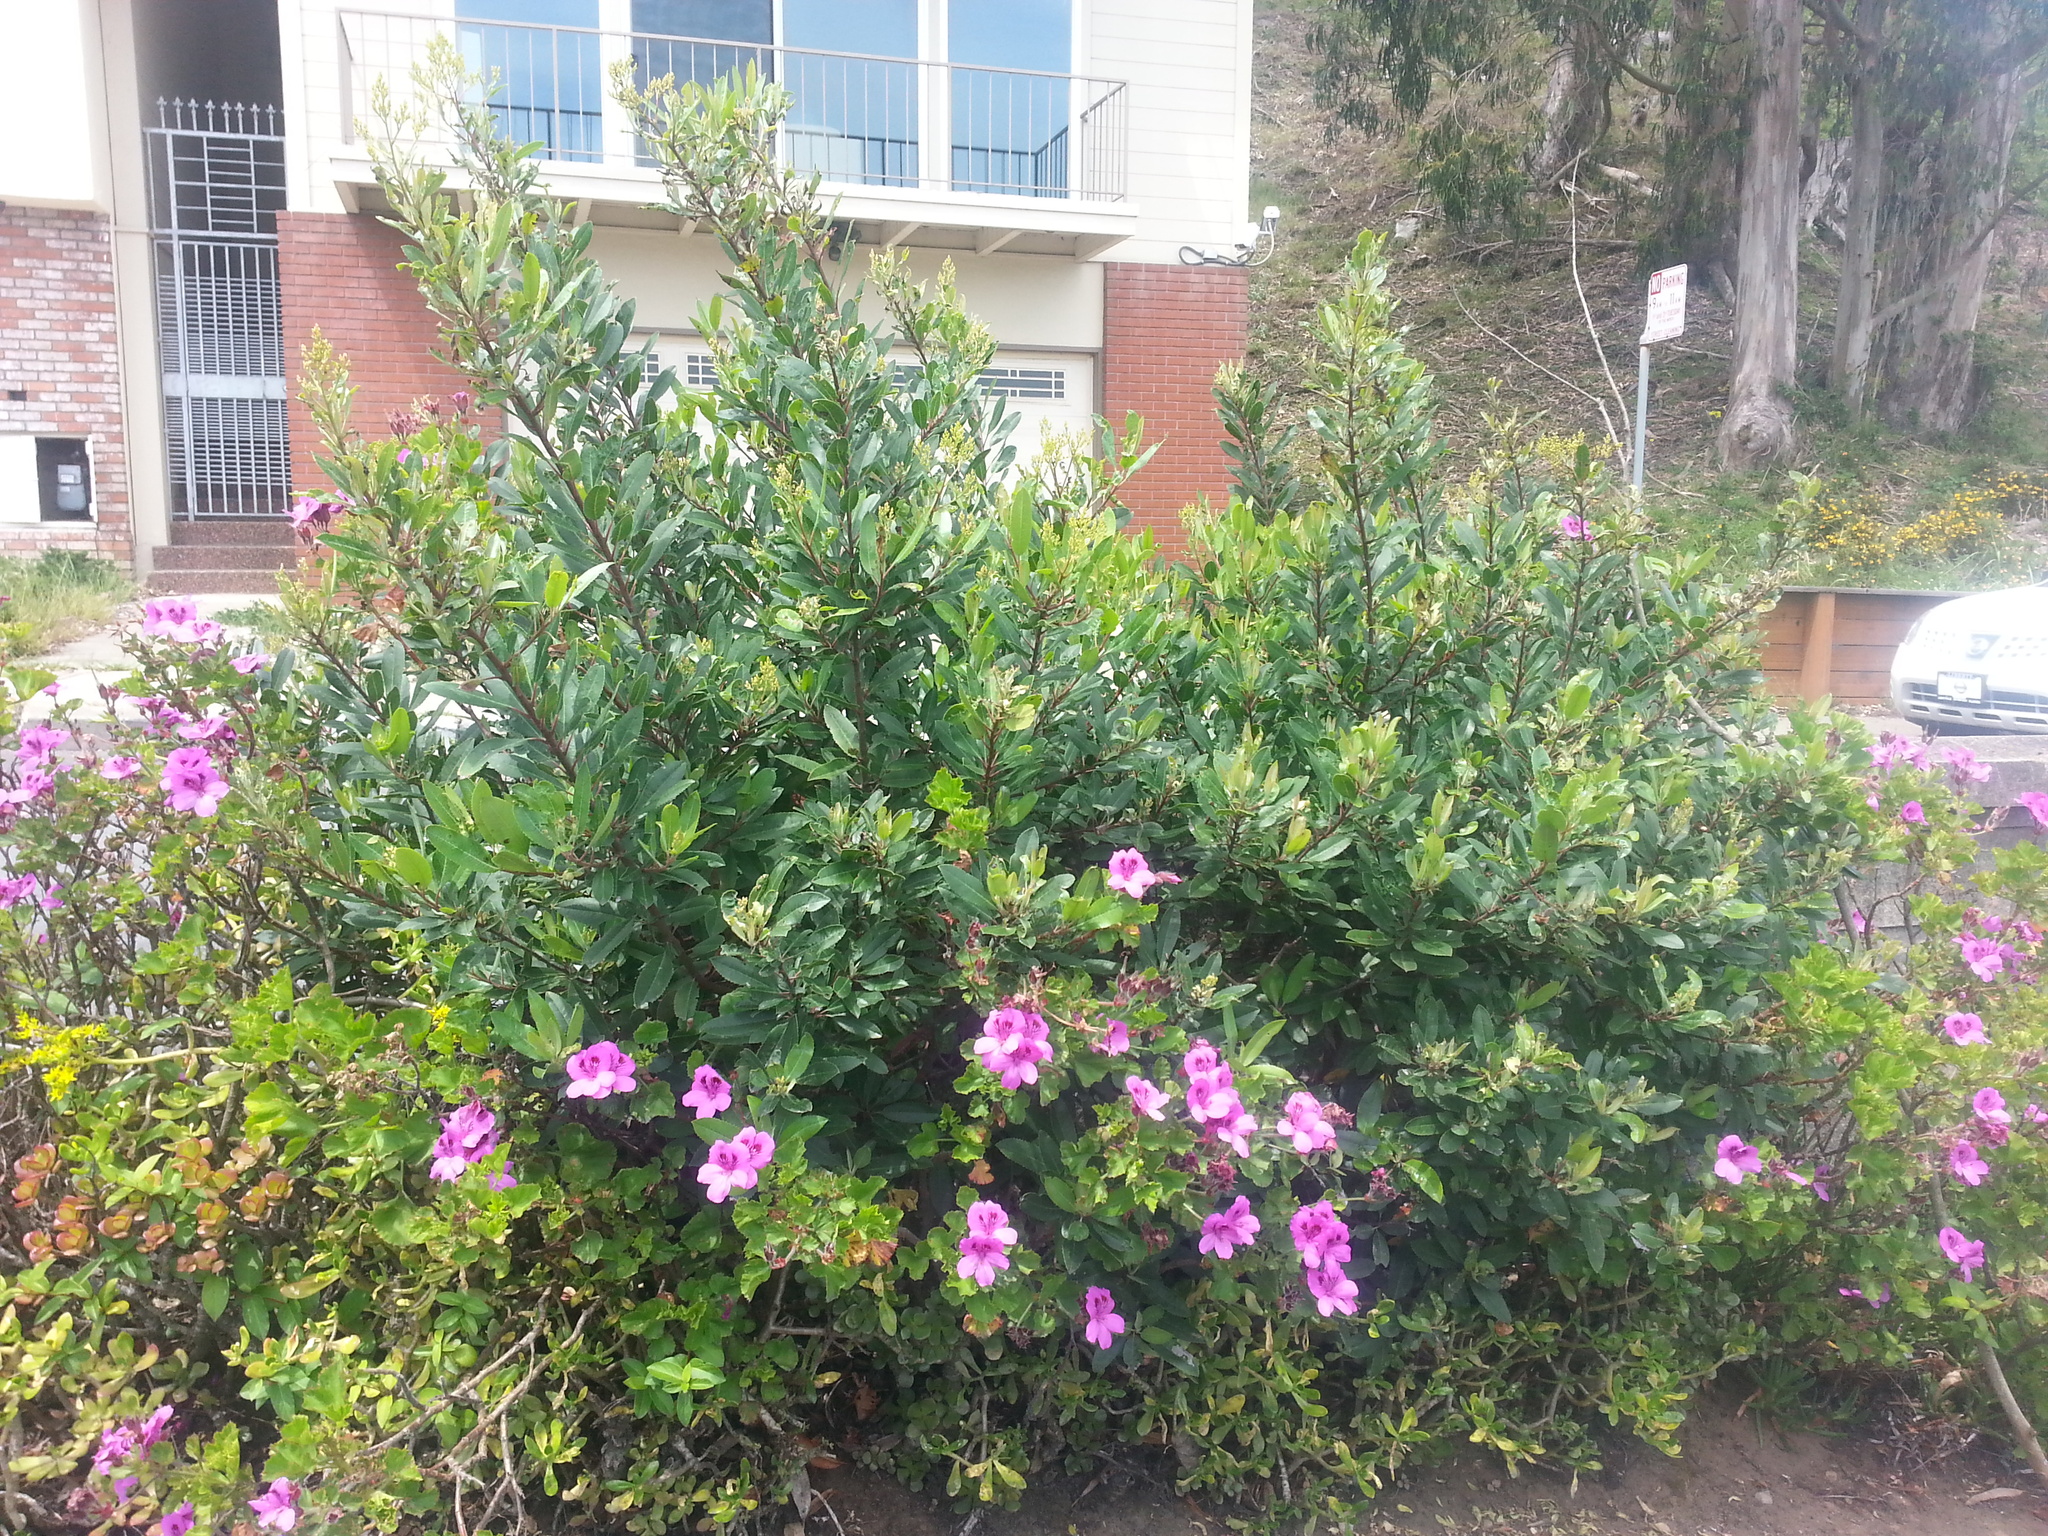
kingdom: Plantae
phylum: Tracheophyta
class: Magnoliopsida
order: Rosales
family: Rosaceae
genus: Heteromeles
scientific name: Heteromeles arbutifolia
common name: California-holly
